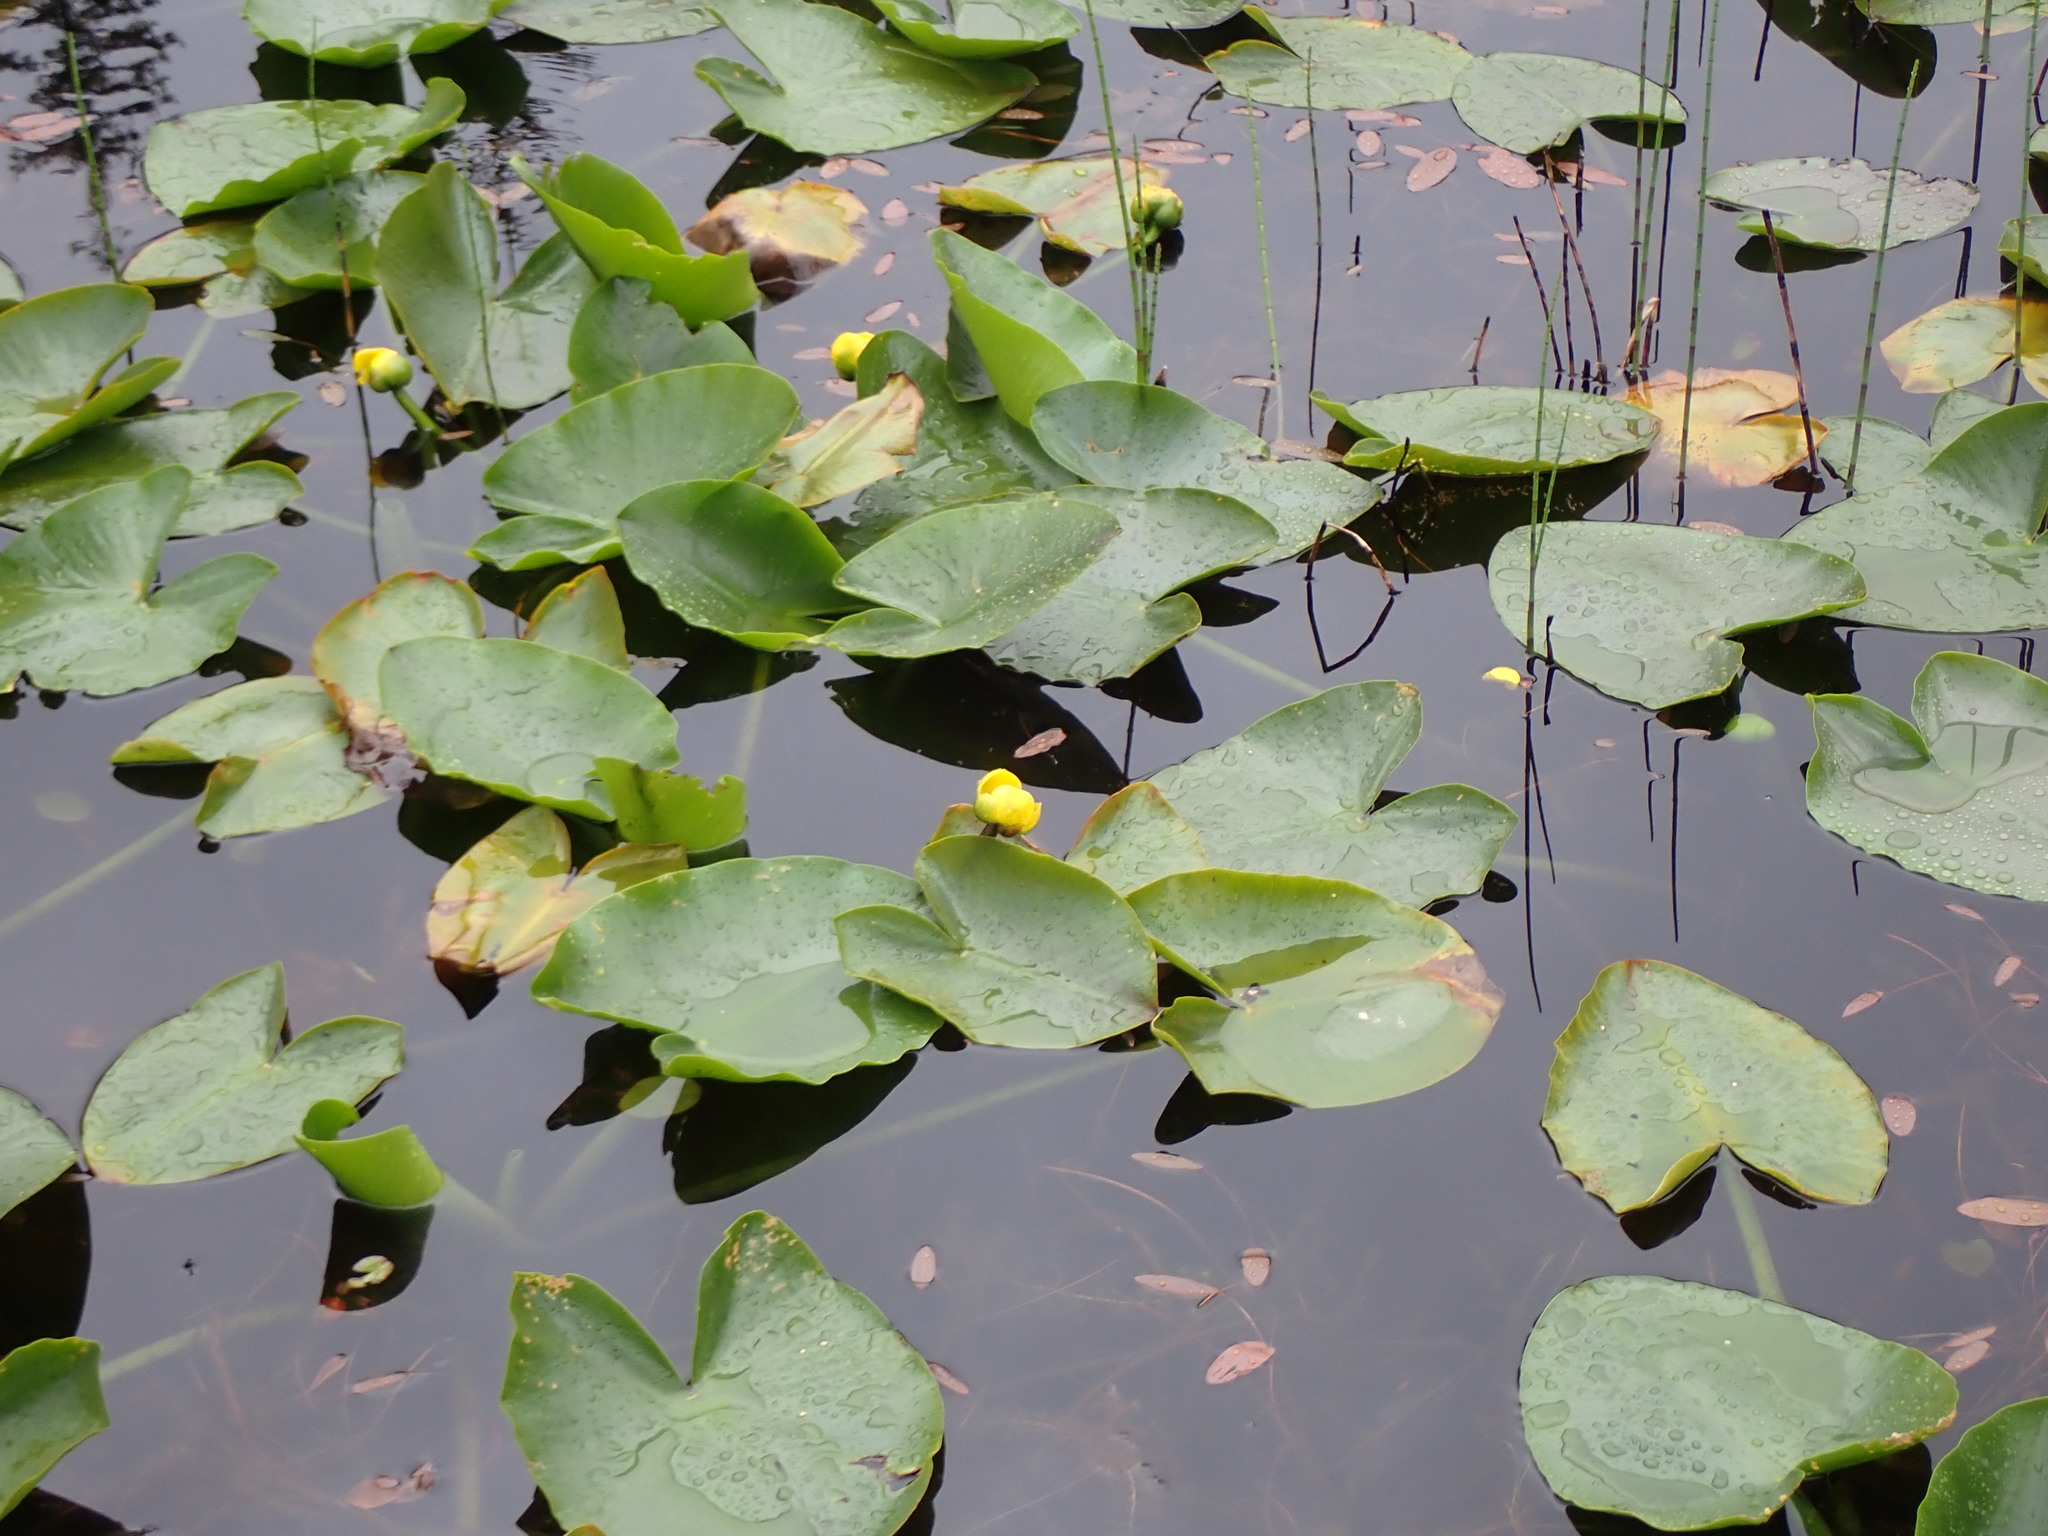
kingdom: Plantae
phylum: Tracheophyta
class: Magnoliopsida
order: Nymphaeales
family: Nymphaeaceae
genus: Nuphar
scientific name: Nuphar polysepala
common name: Rocky mountain cow-lily
